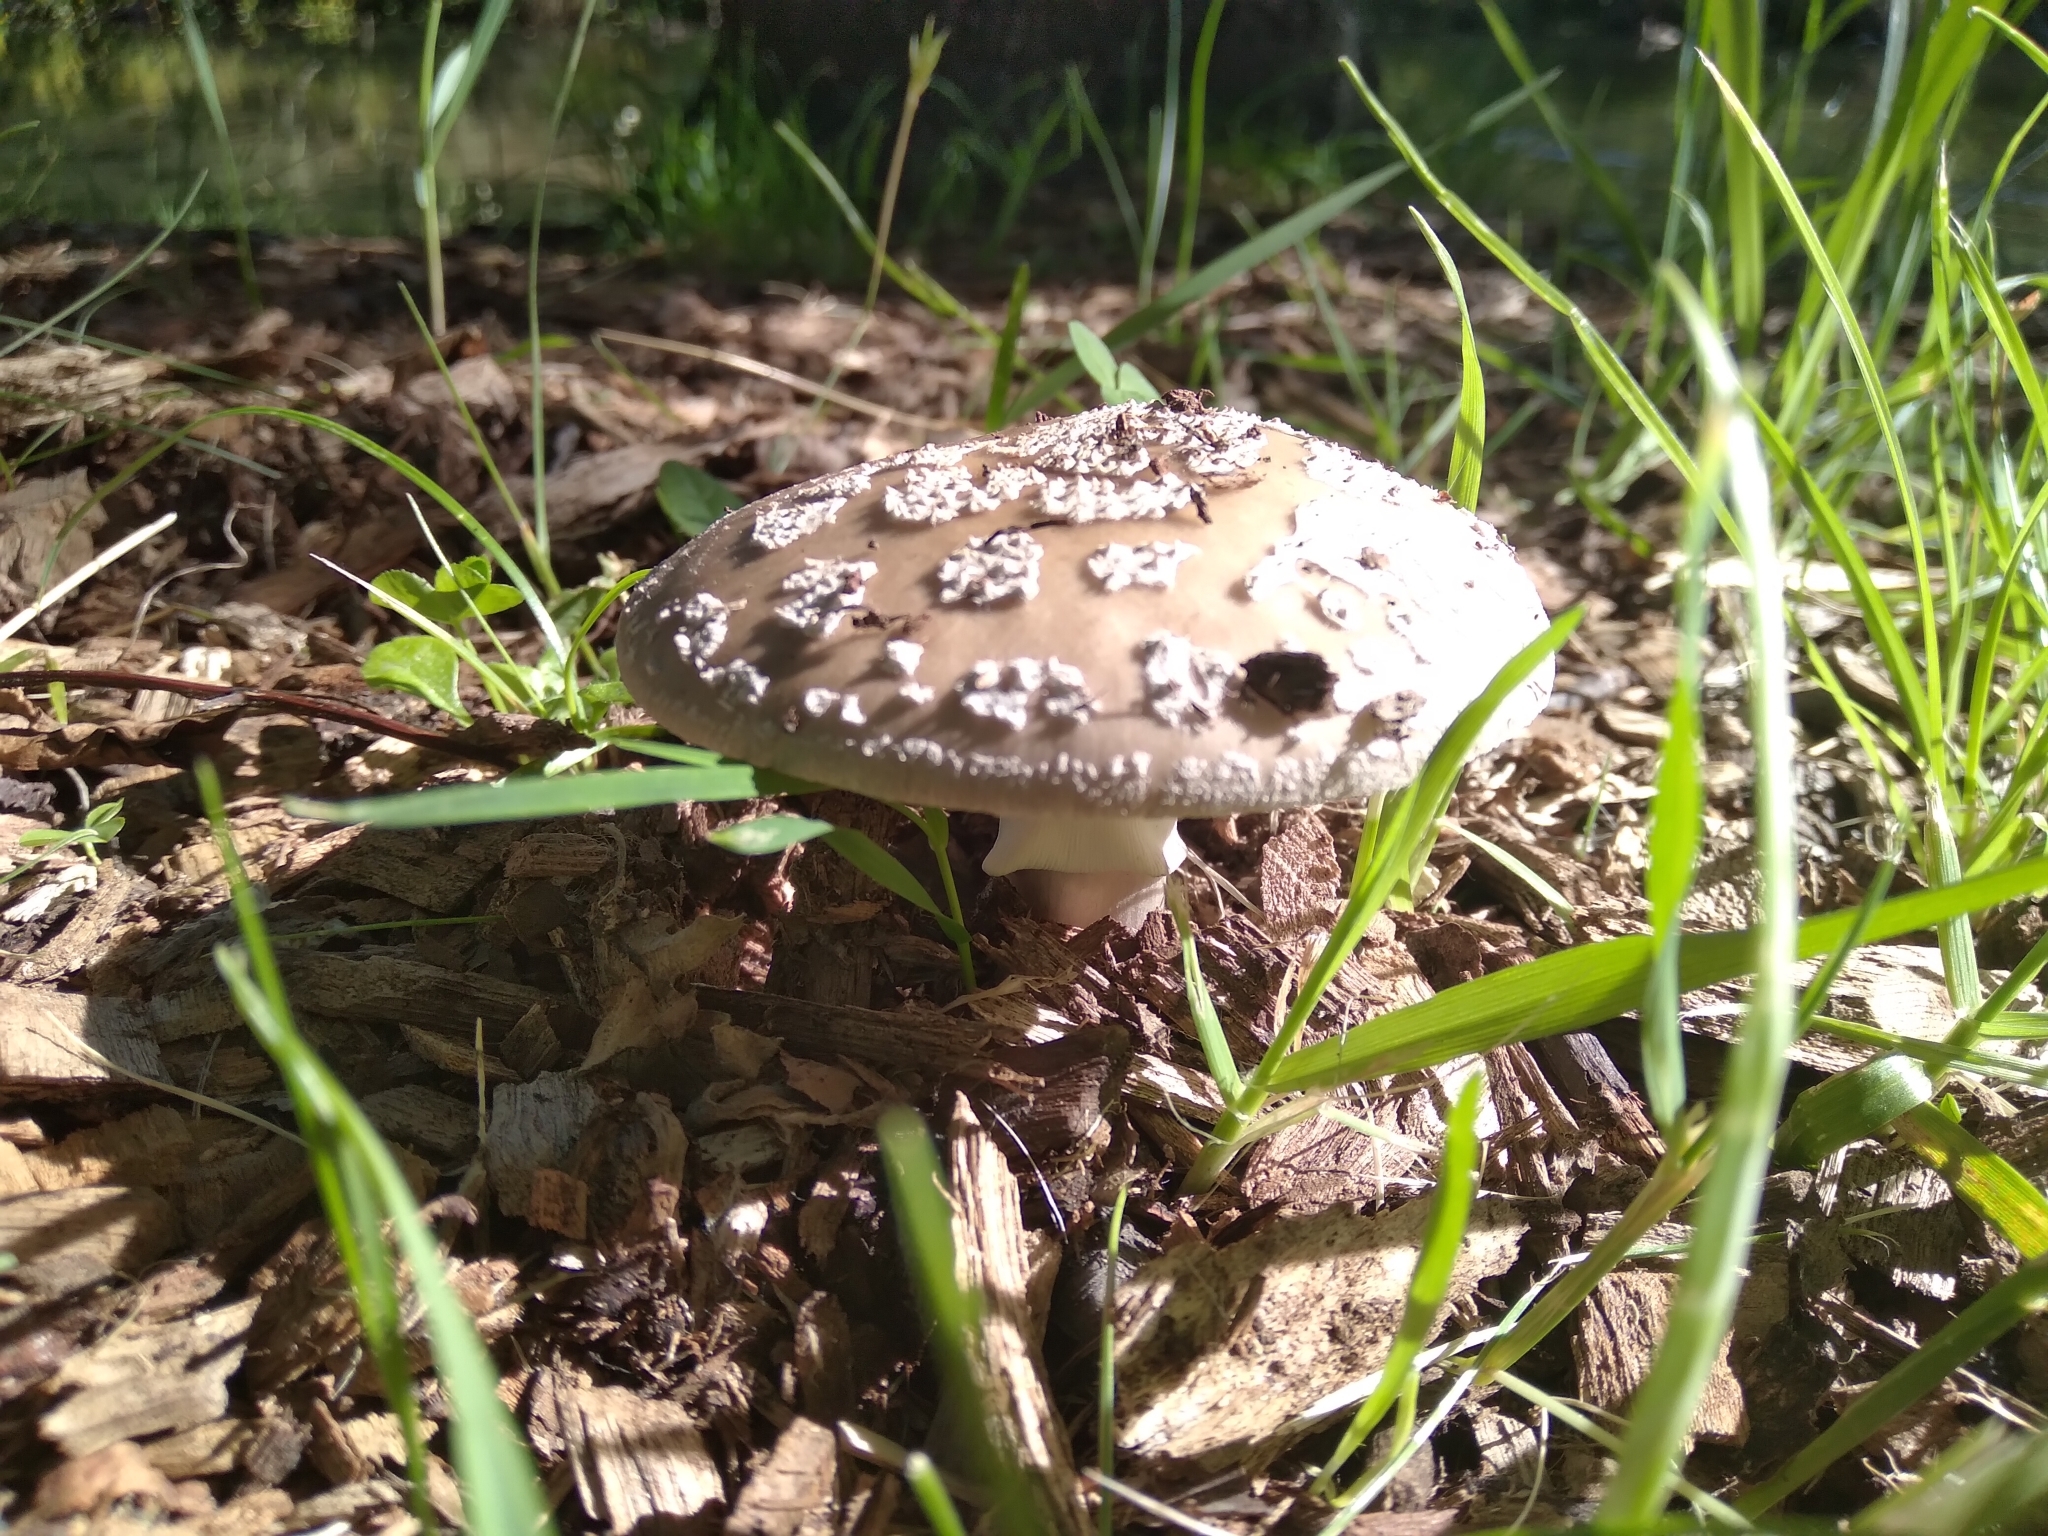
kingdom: Fungi
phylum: Basidiomycota
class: Agaricomycetes
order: Agaricales
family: Amanitaceae
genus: Amanita
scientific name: Amanita excelsa
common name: European false blusher
